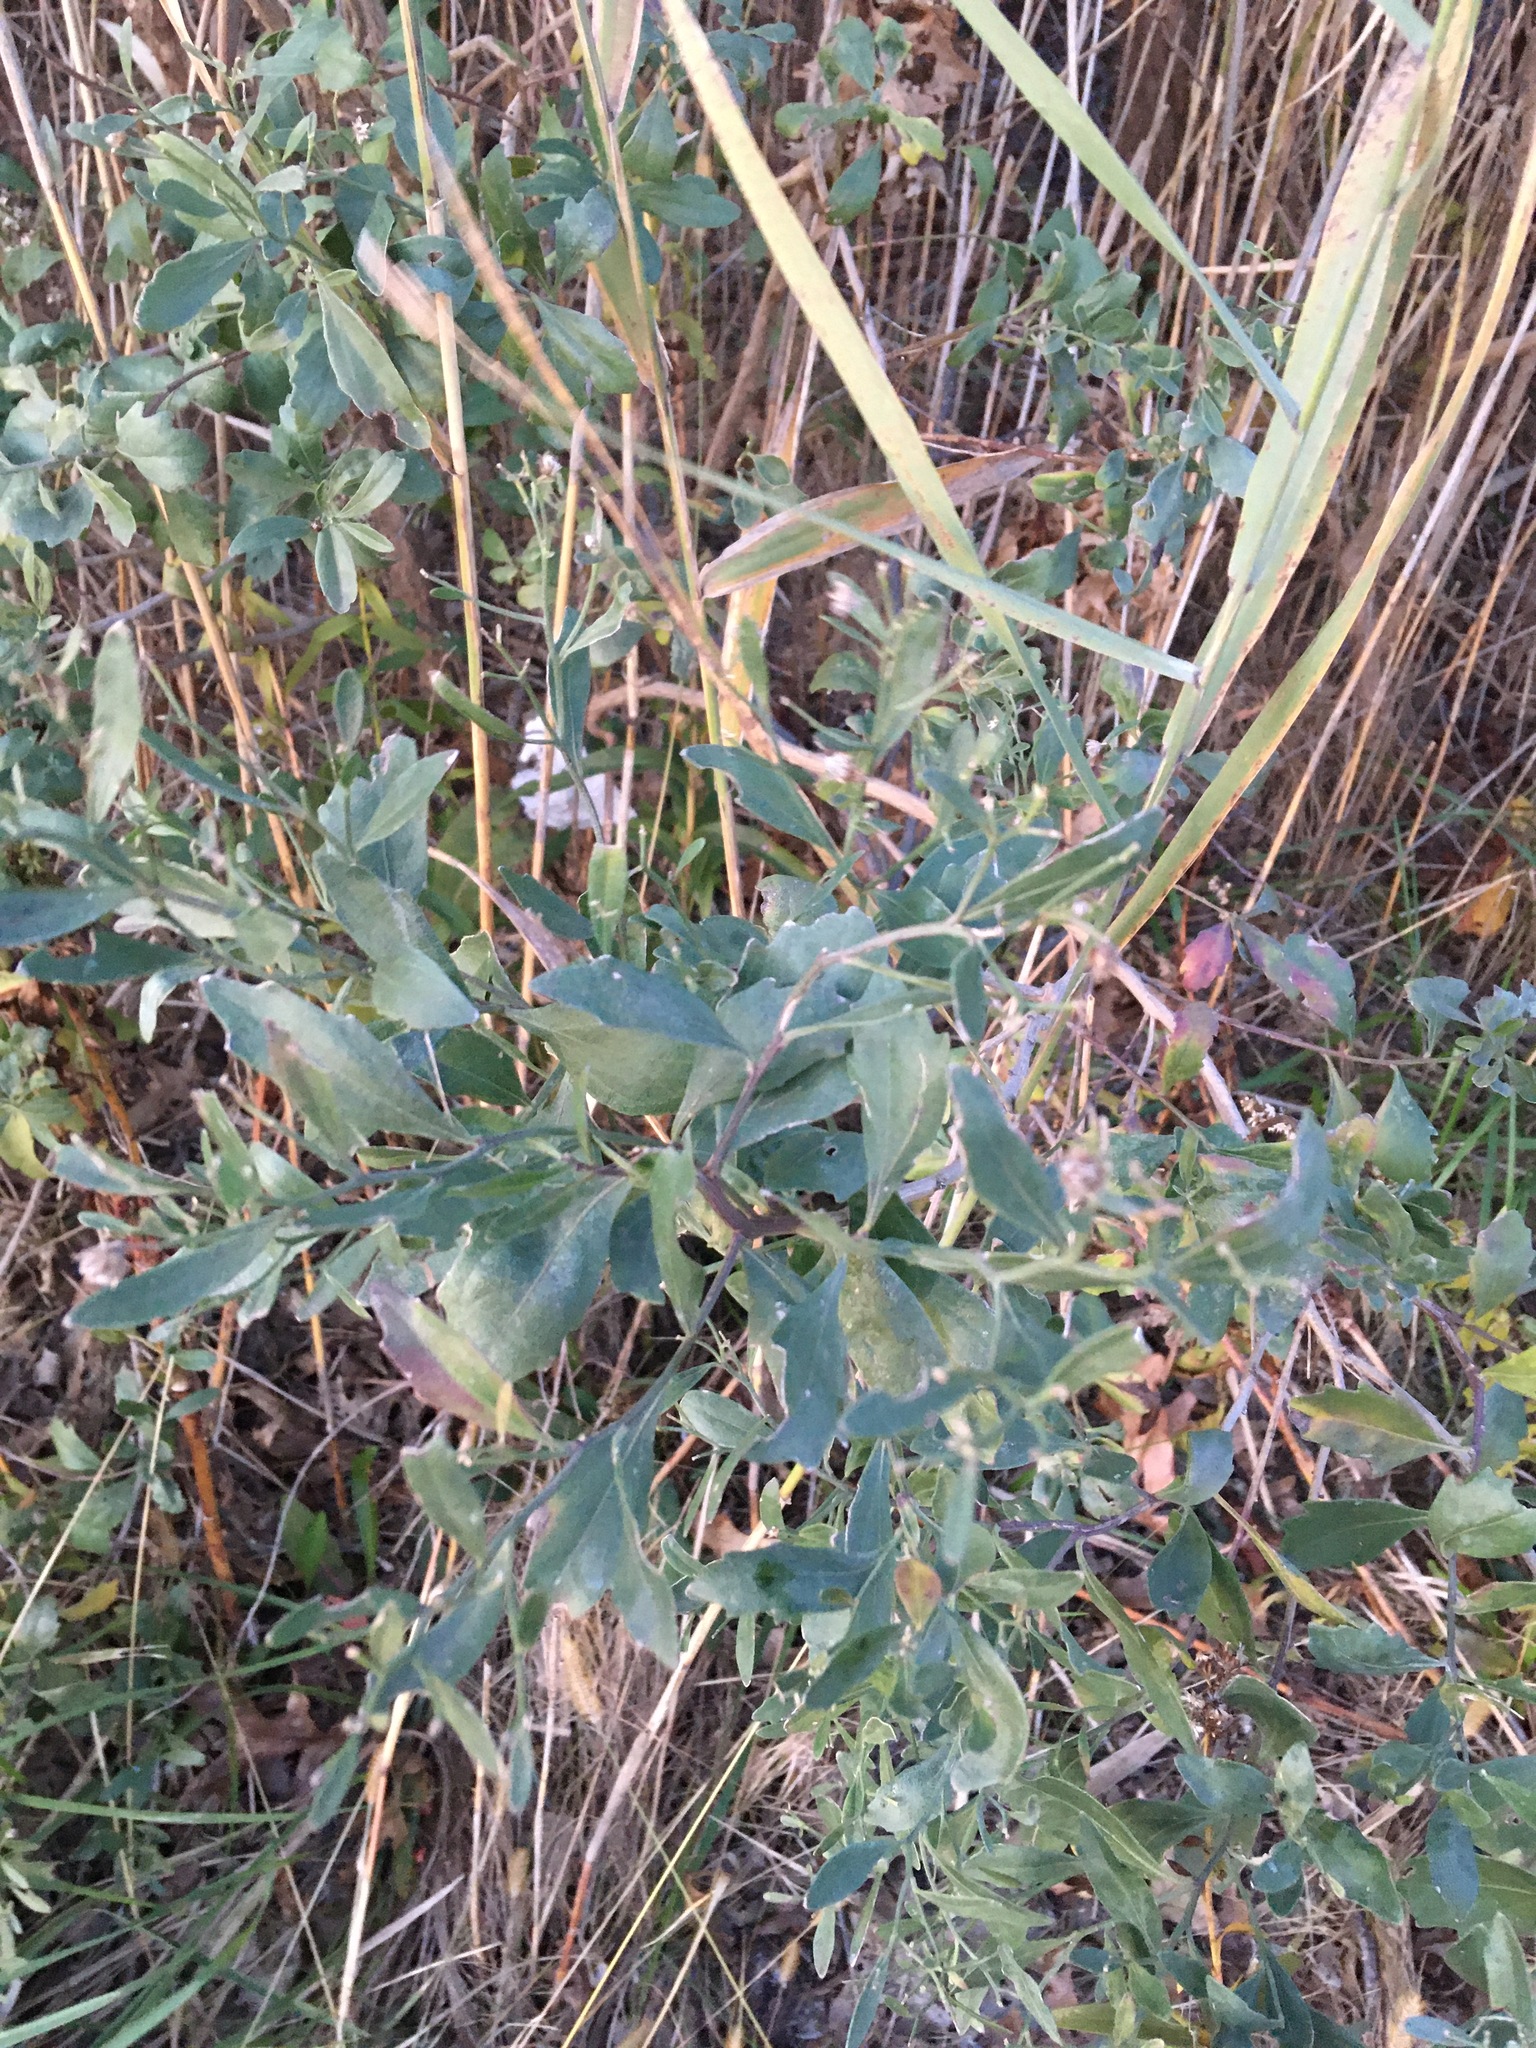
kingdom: Plantae
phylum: Tracheophyta
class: Magnoliopsida
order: Asterales
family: Asteraceae
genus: Baccharis
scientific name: Baccharis halimifolia
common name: Eastern baccharis
